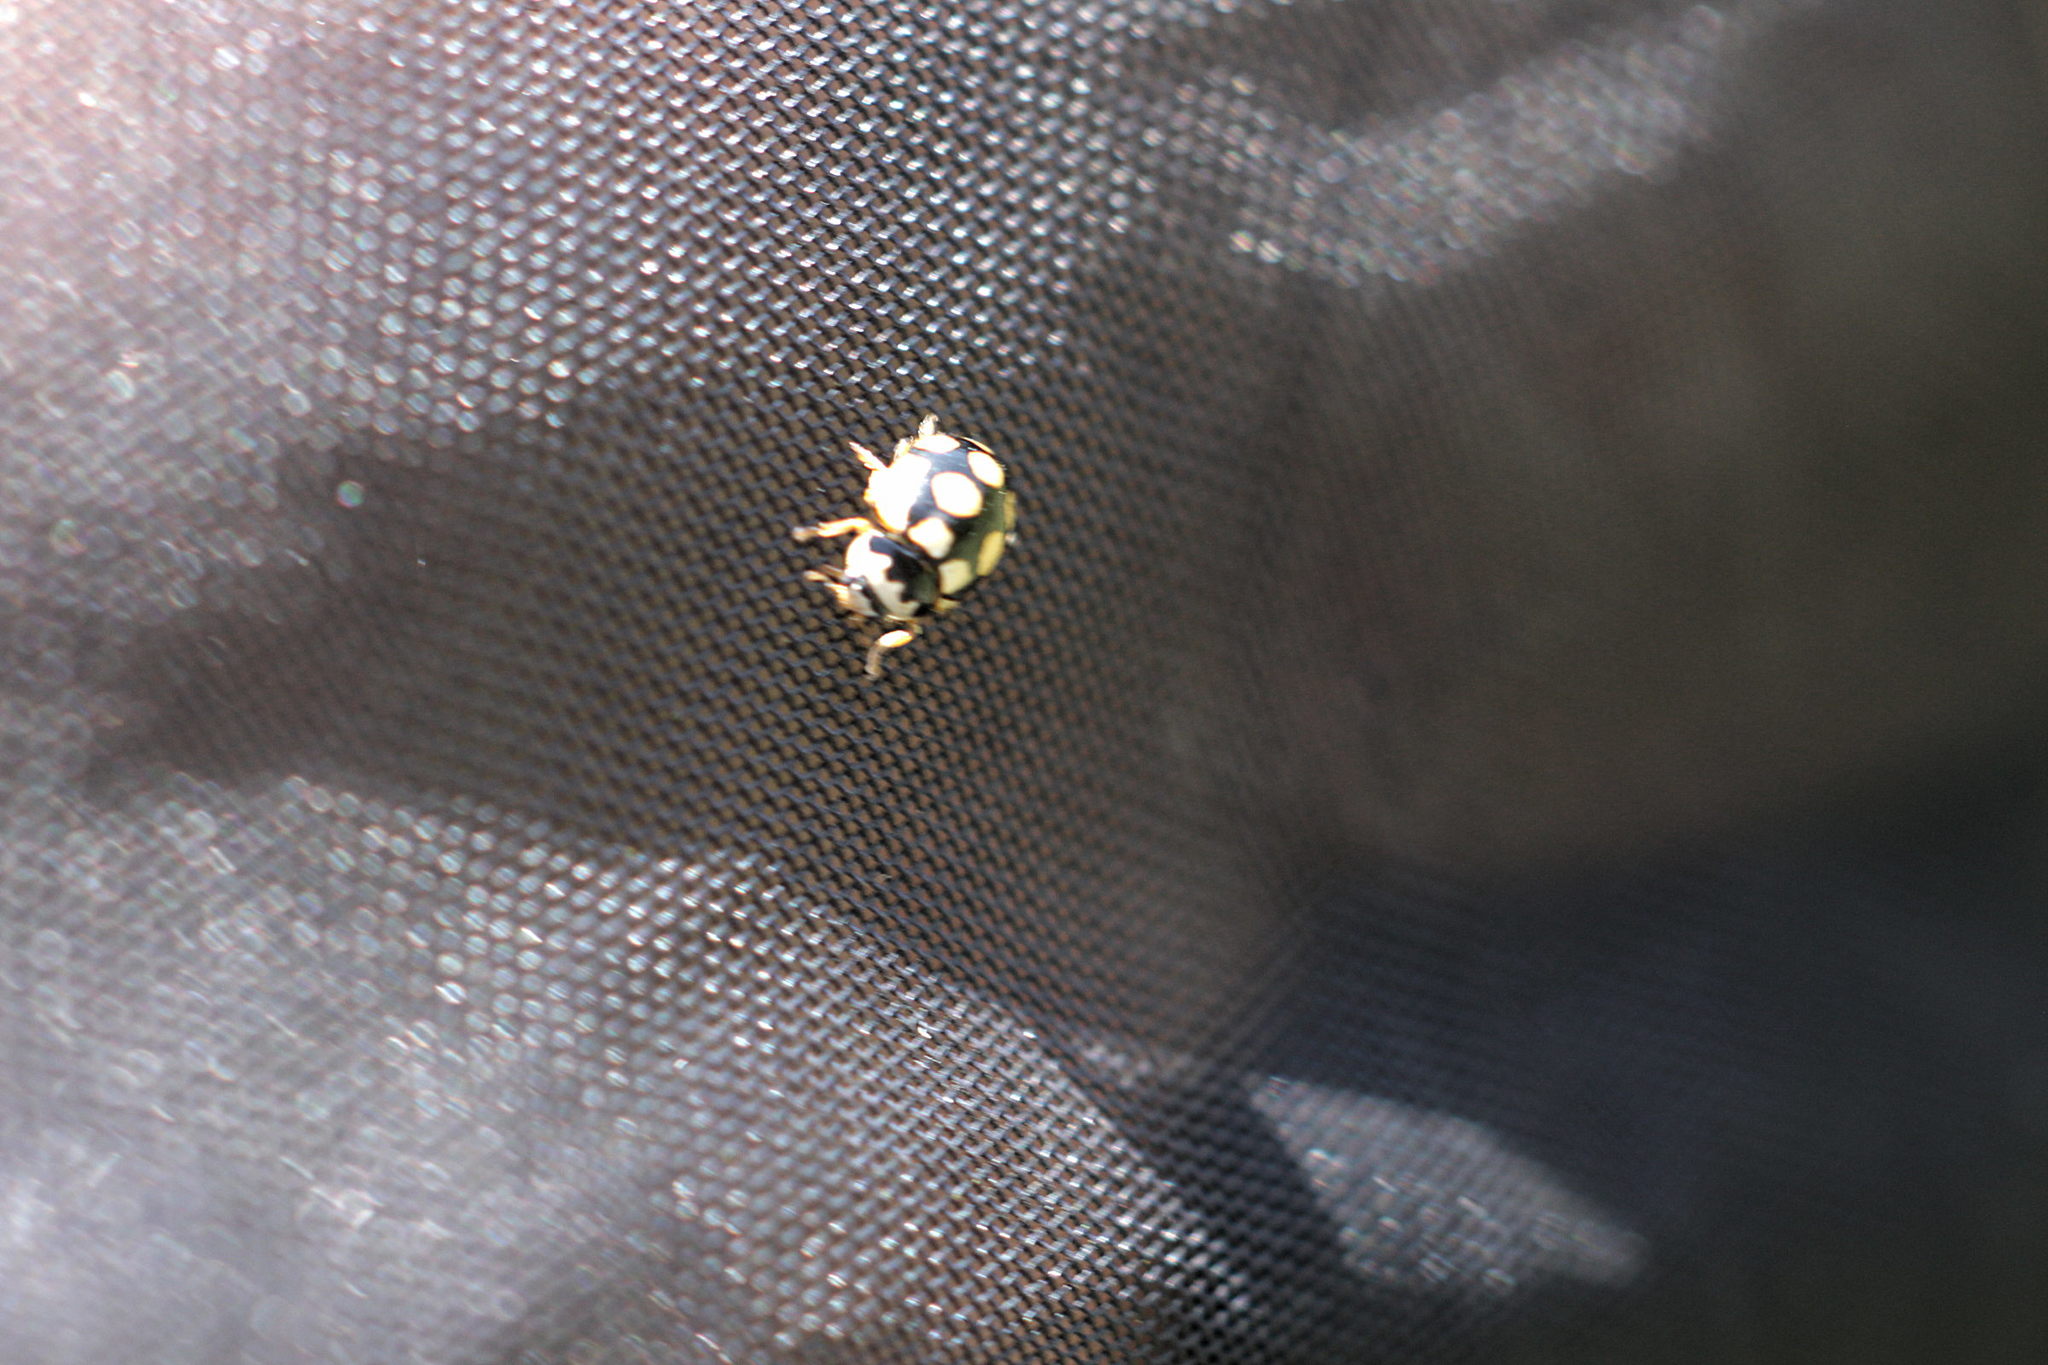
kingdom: Animalia
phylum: Arthropoda
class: Insecta
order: Coleoptera
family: Coccinellidae
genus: Coccinula
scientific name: Coccinula quatuordecimpustulata
